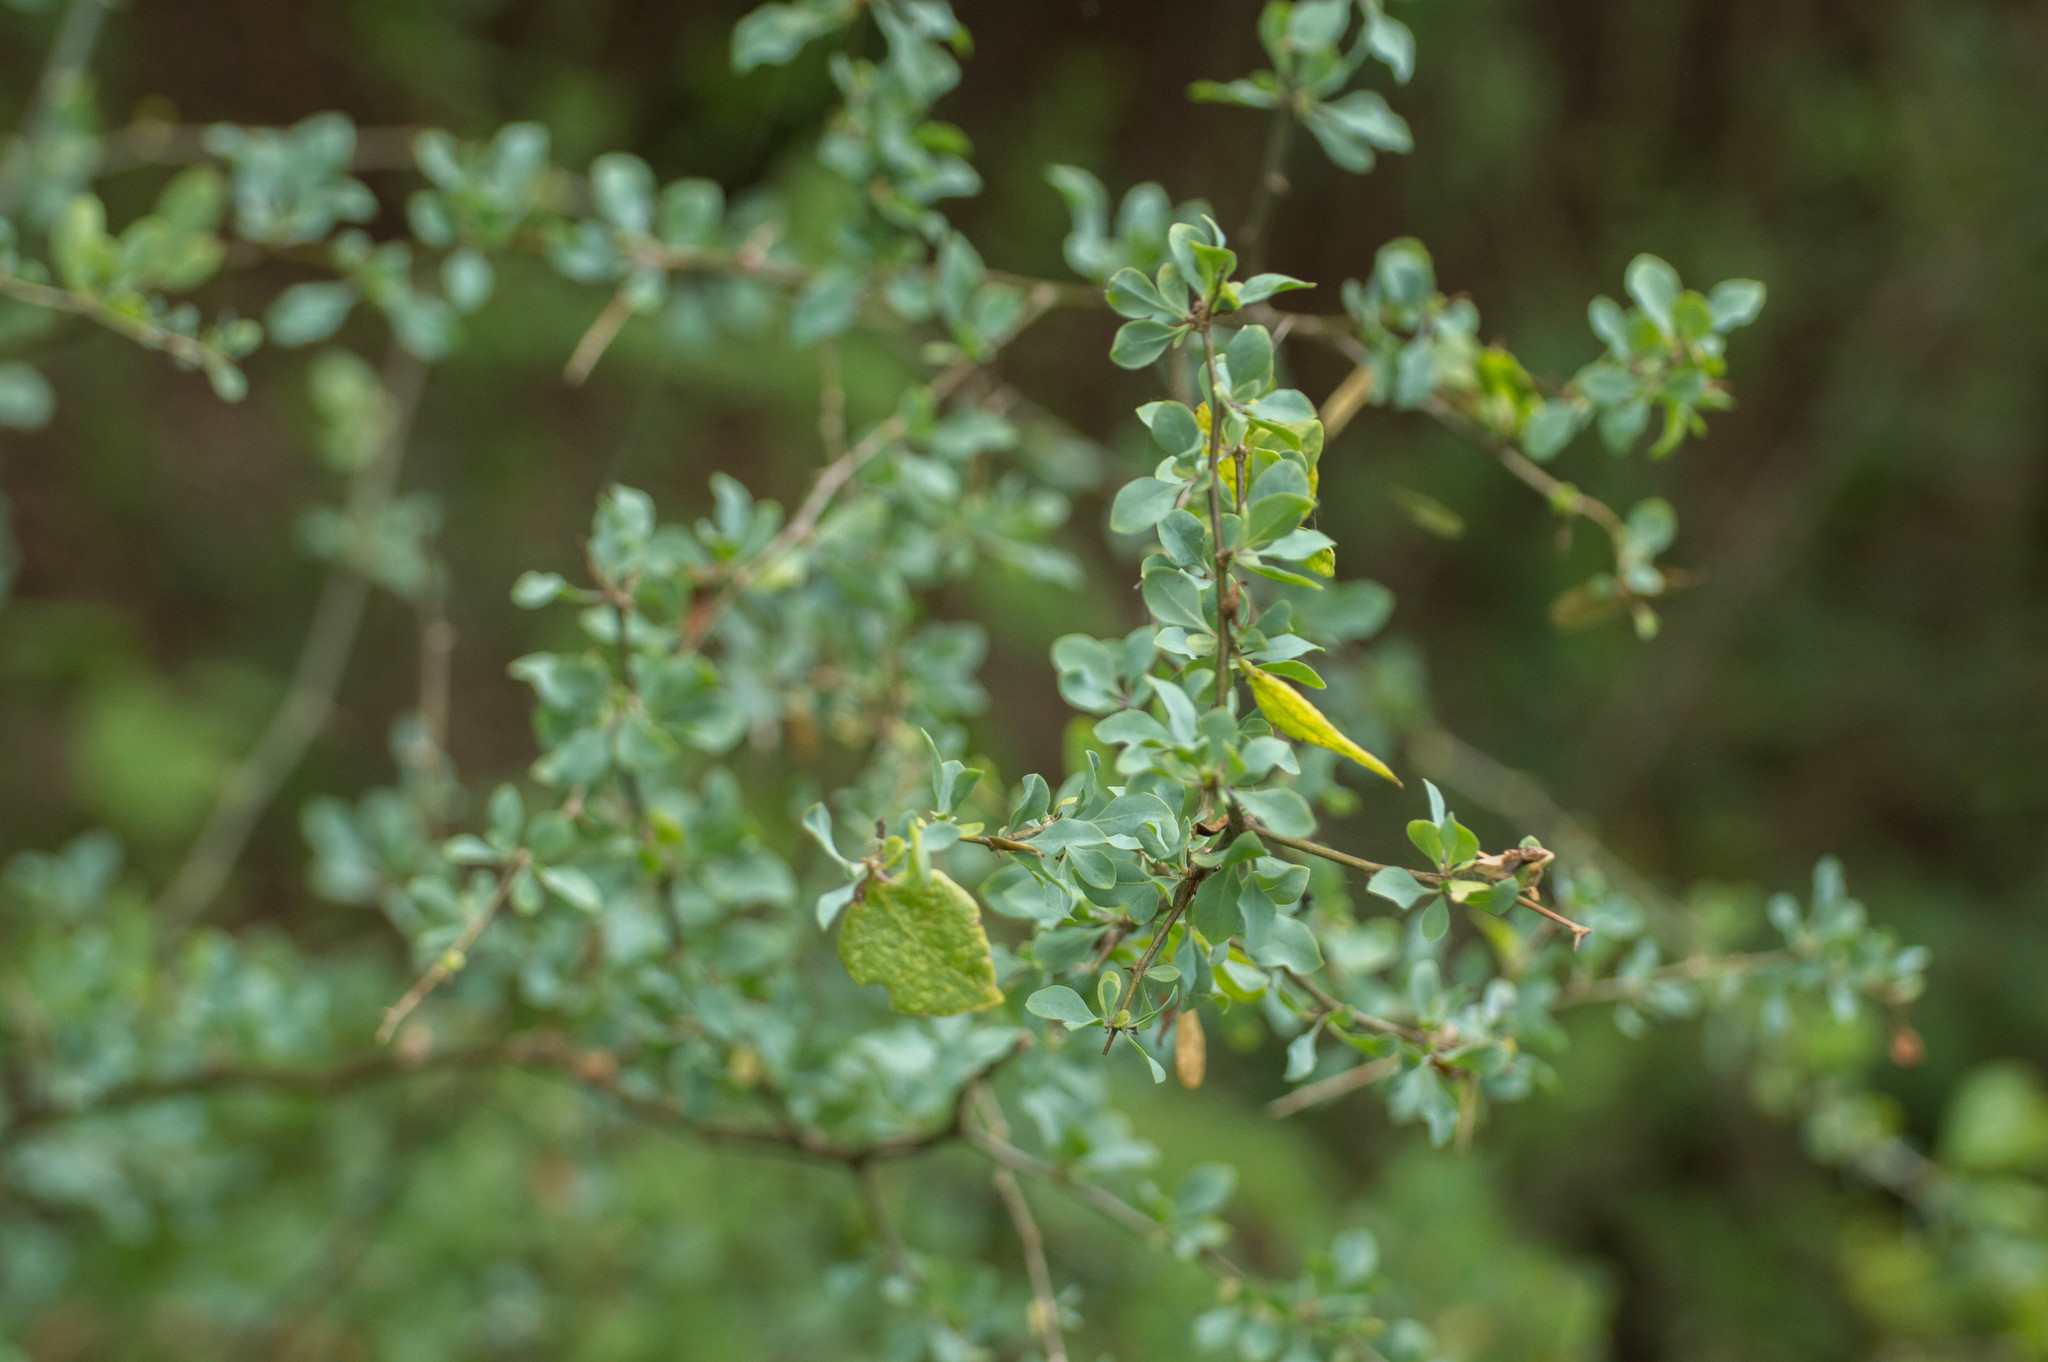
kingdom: Plantae
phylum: Tracheophyta
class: Magnoliopsida
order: Solanales
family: Solanaceae
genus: Lycium
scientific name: Lycium boerhaaviifolium
